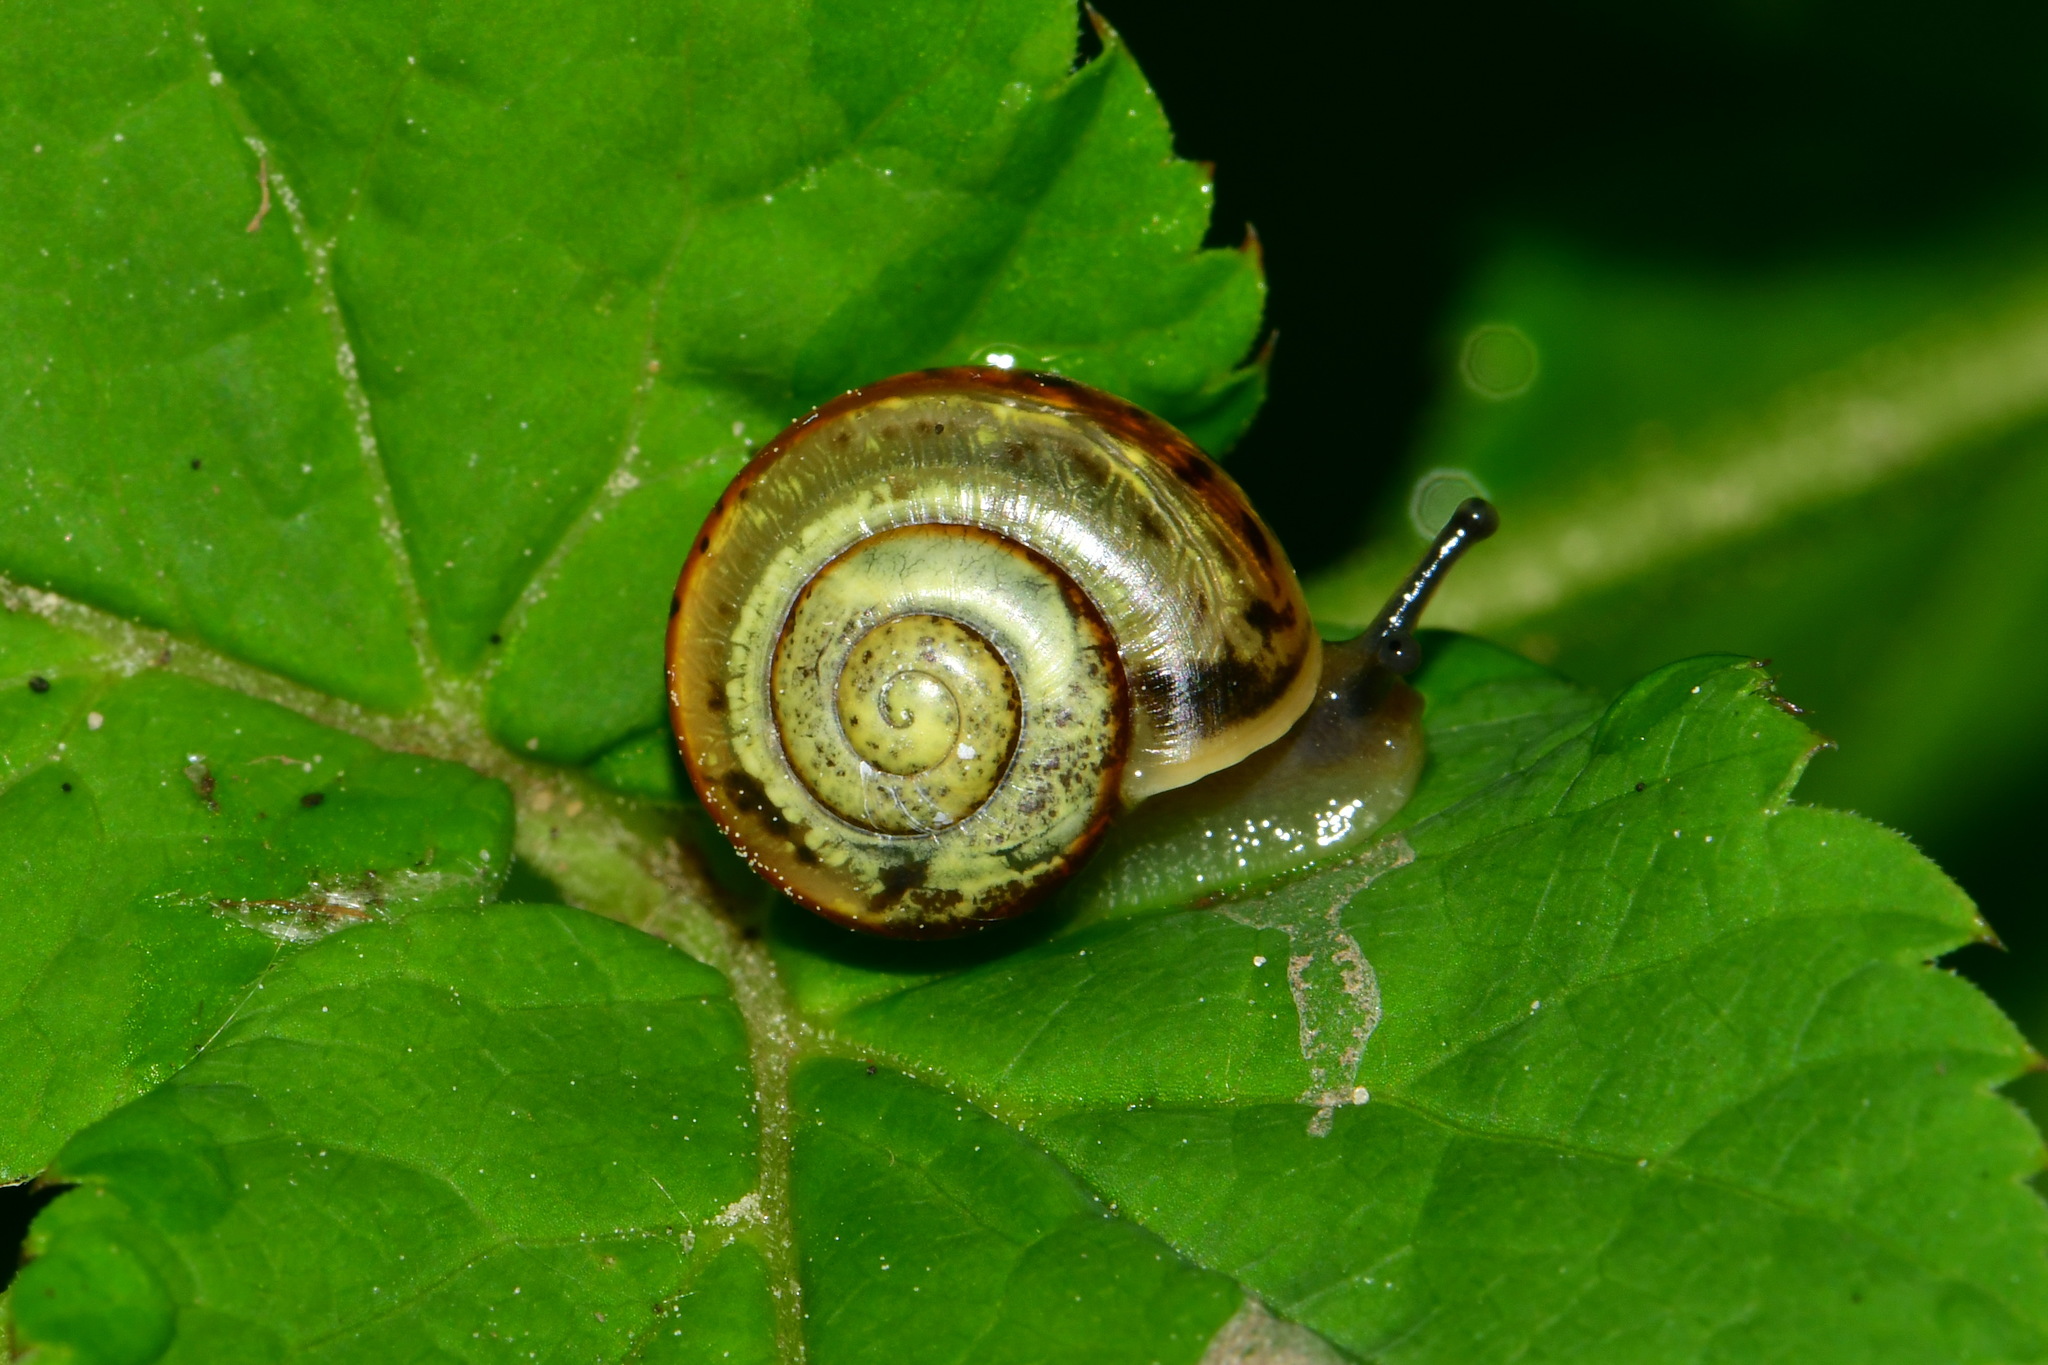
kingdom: Animalia
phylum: Mollusca
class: Gastropoda
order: Stylommatophora
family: Camaenidae
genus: Fruticicola
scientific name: Fruticicola fruticum
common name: Bush snail
